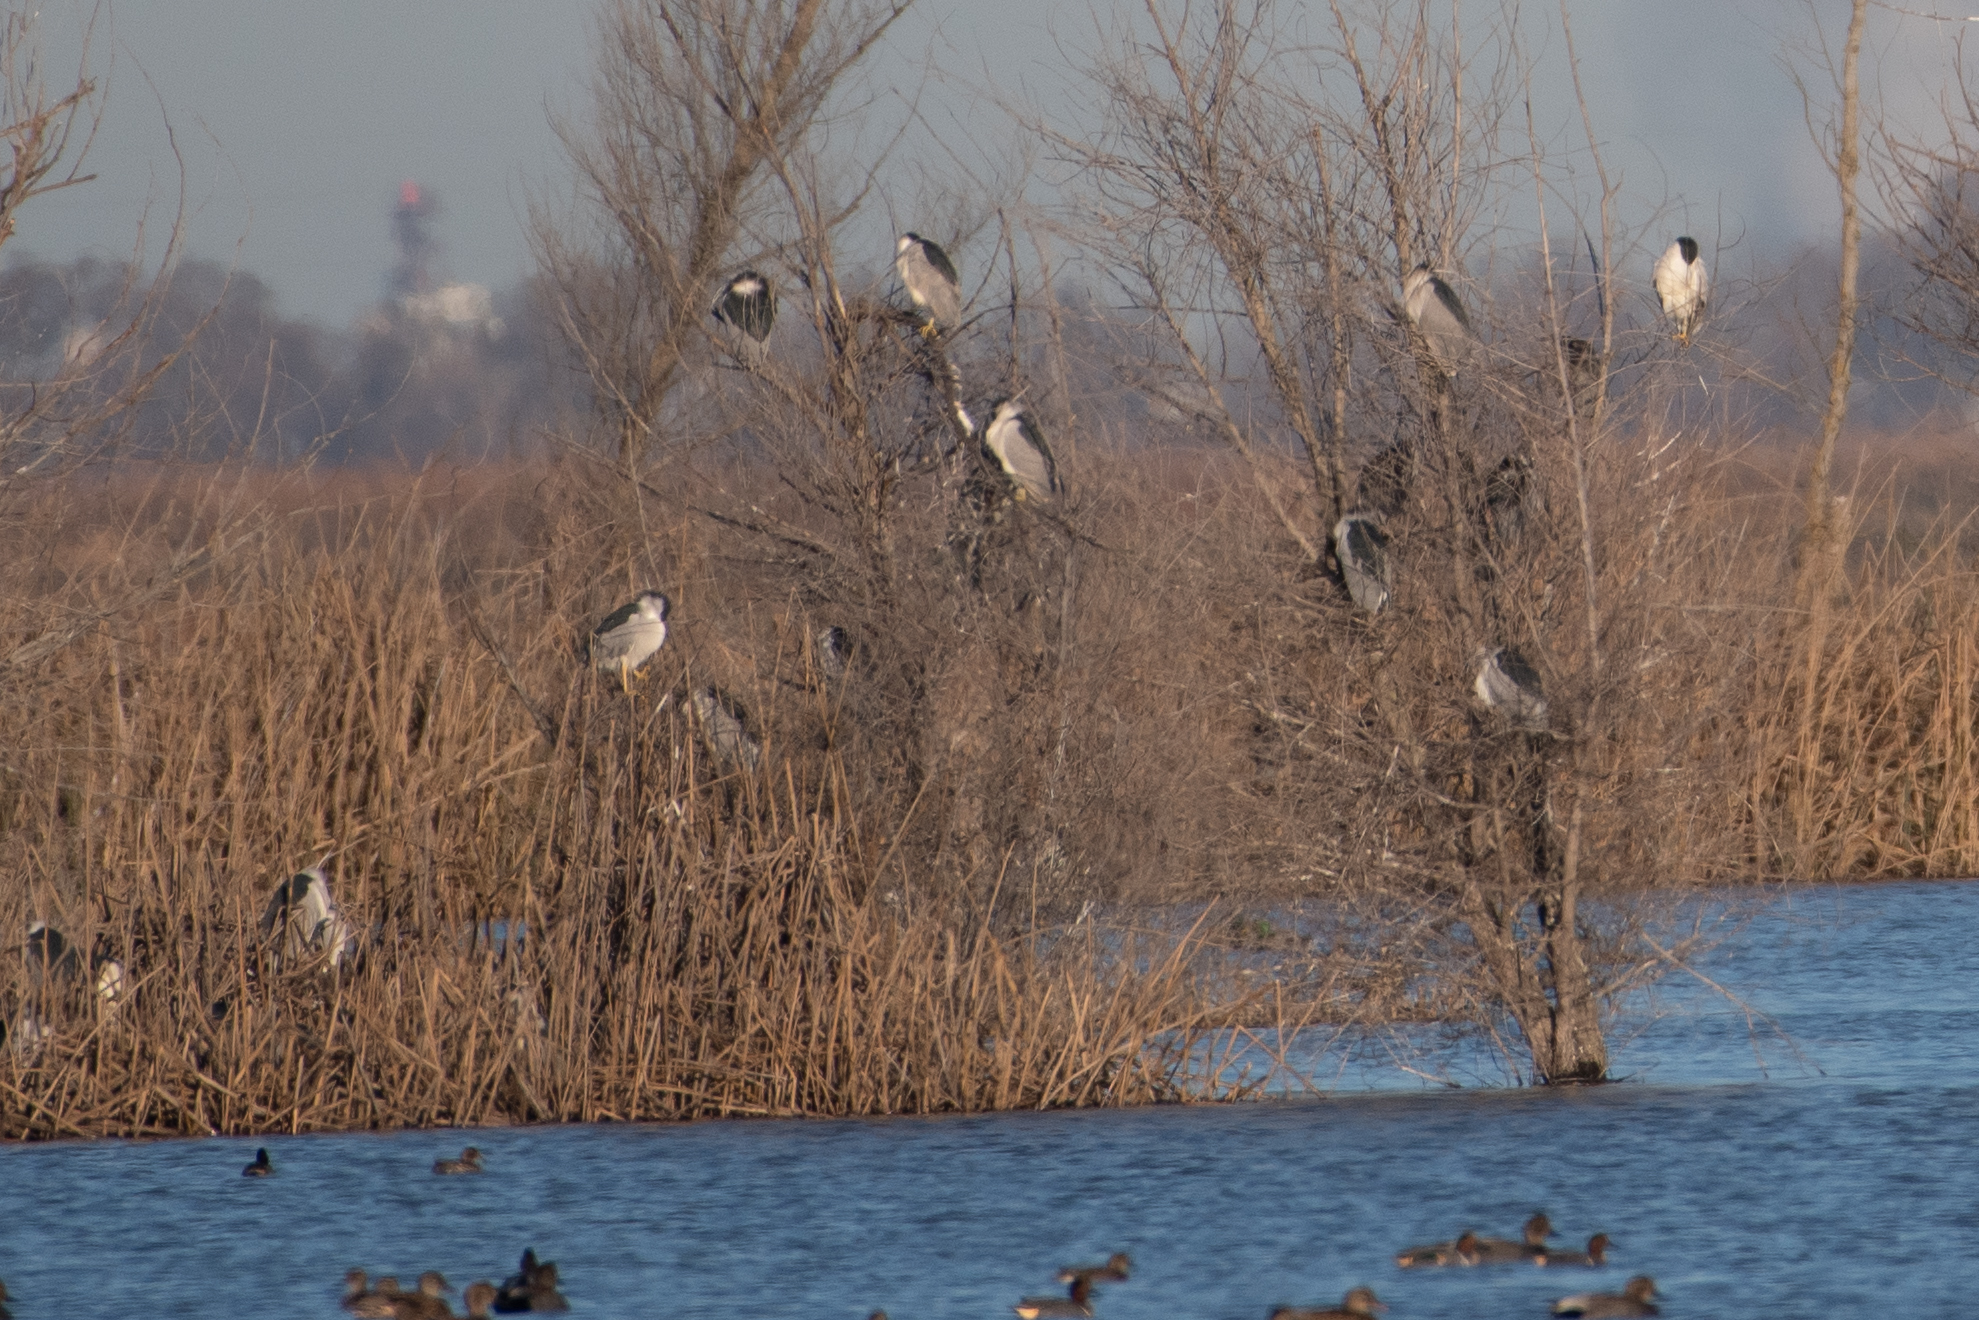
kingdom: Animalia
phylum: Chordata
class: Aves
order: Pelecaniformes
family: Ardeidae
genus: Nycticorax
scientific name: Nycticorax nycticorax
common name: Black-crowned night heron
